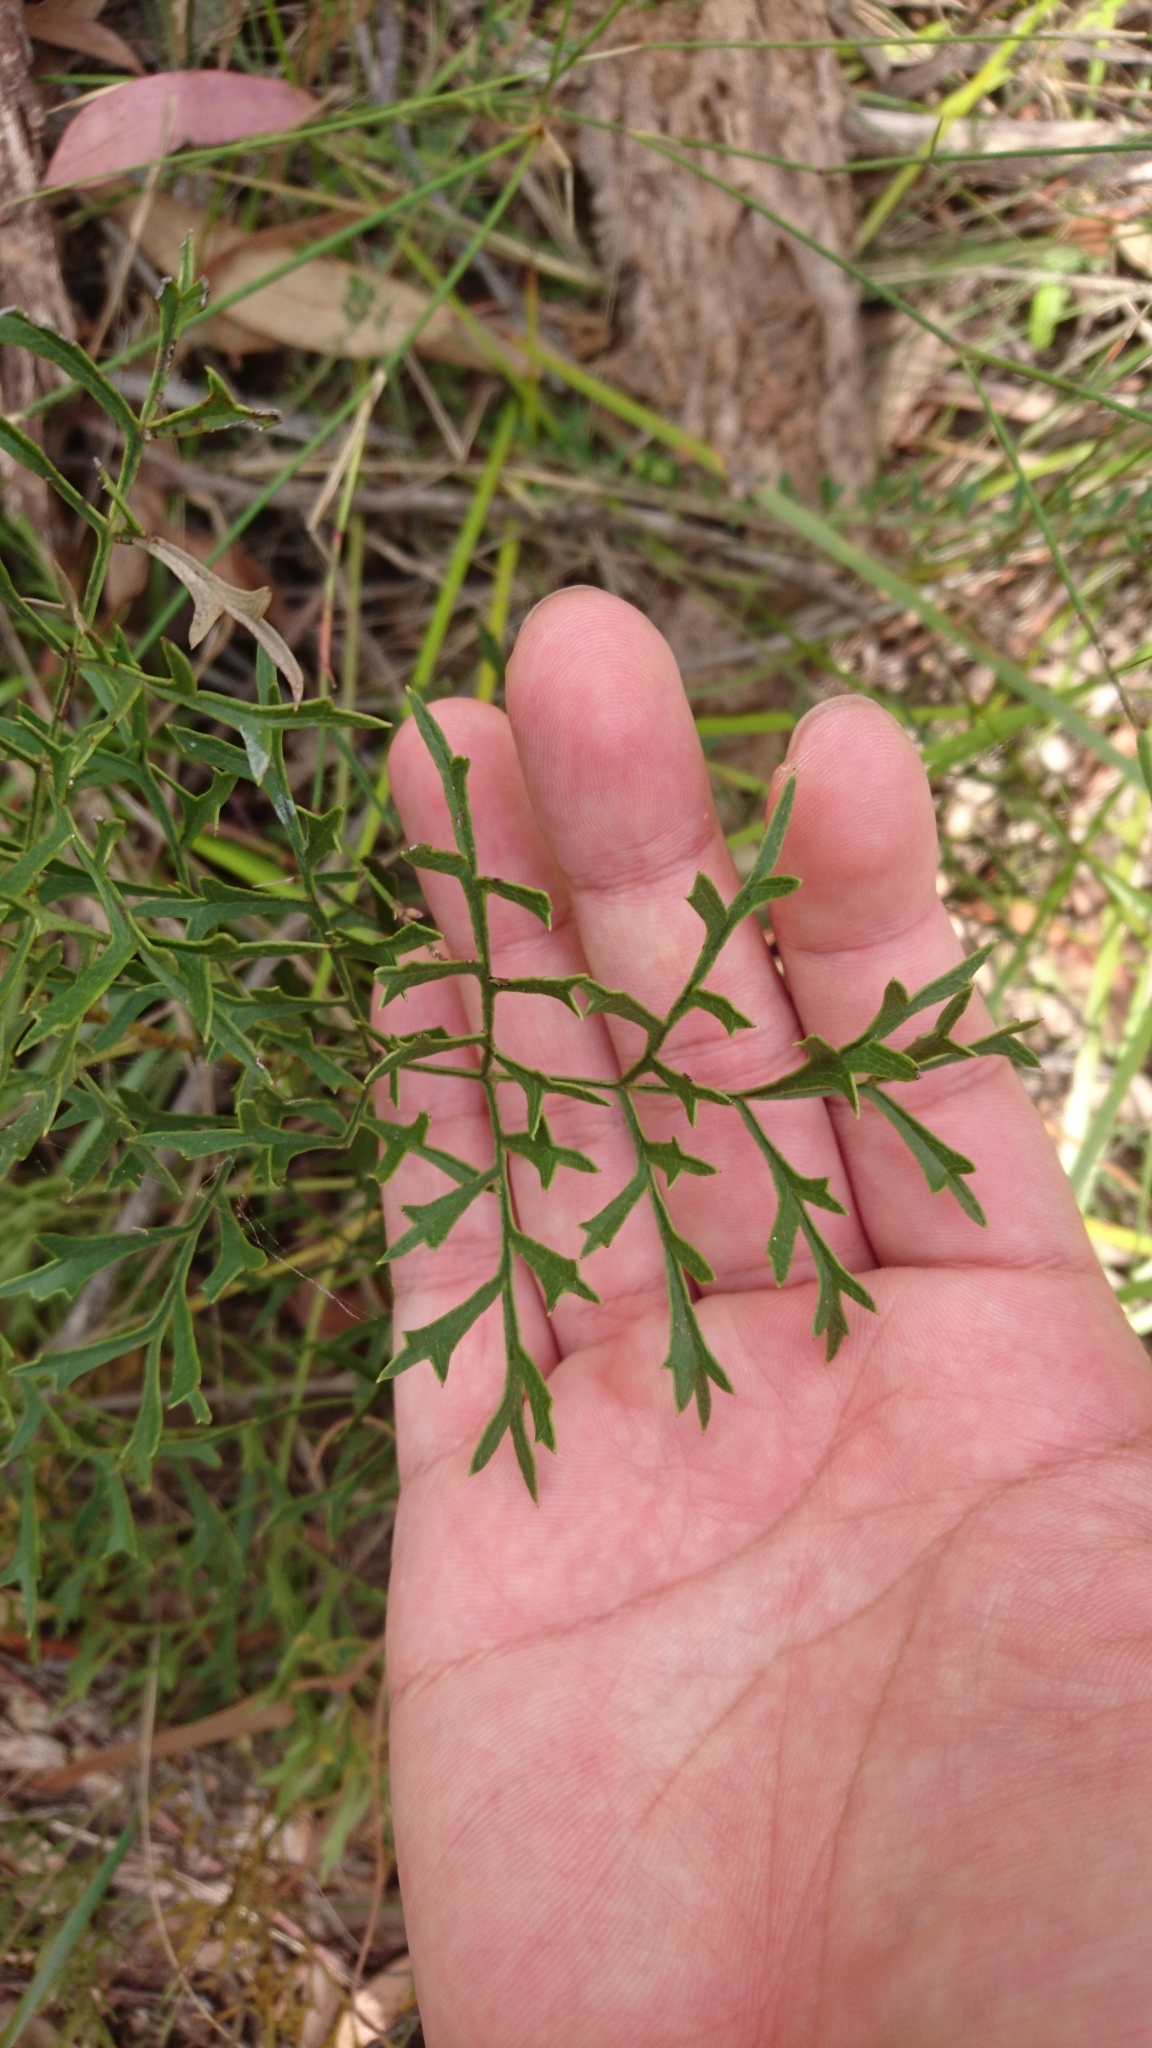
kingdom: Plantae
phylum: Tracheophyta
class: Magnoliopsida
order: Proteales
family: Proteaceae
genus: Lomatia
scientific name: Lomatia silaifolia
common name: Crinklebush
